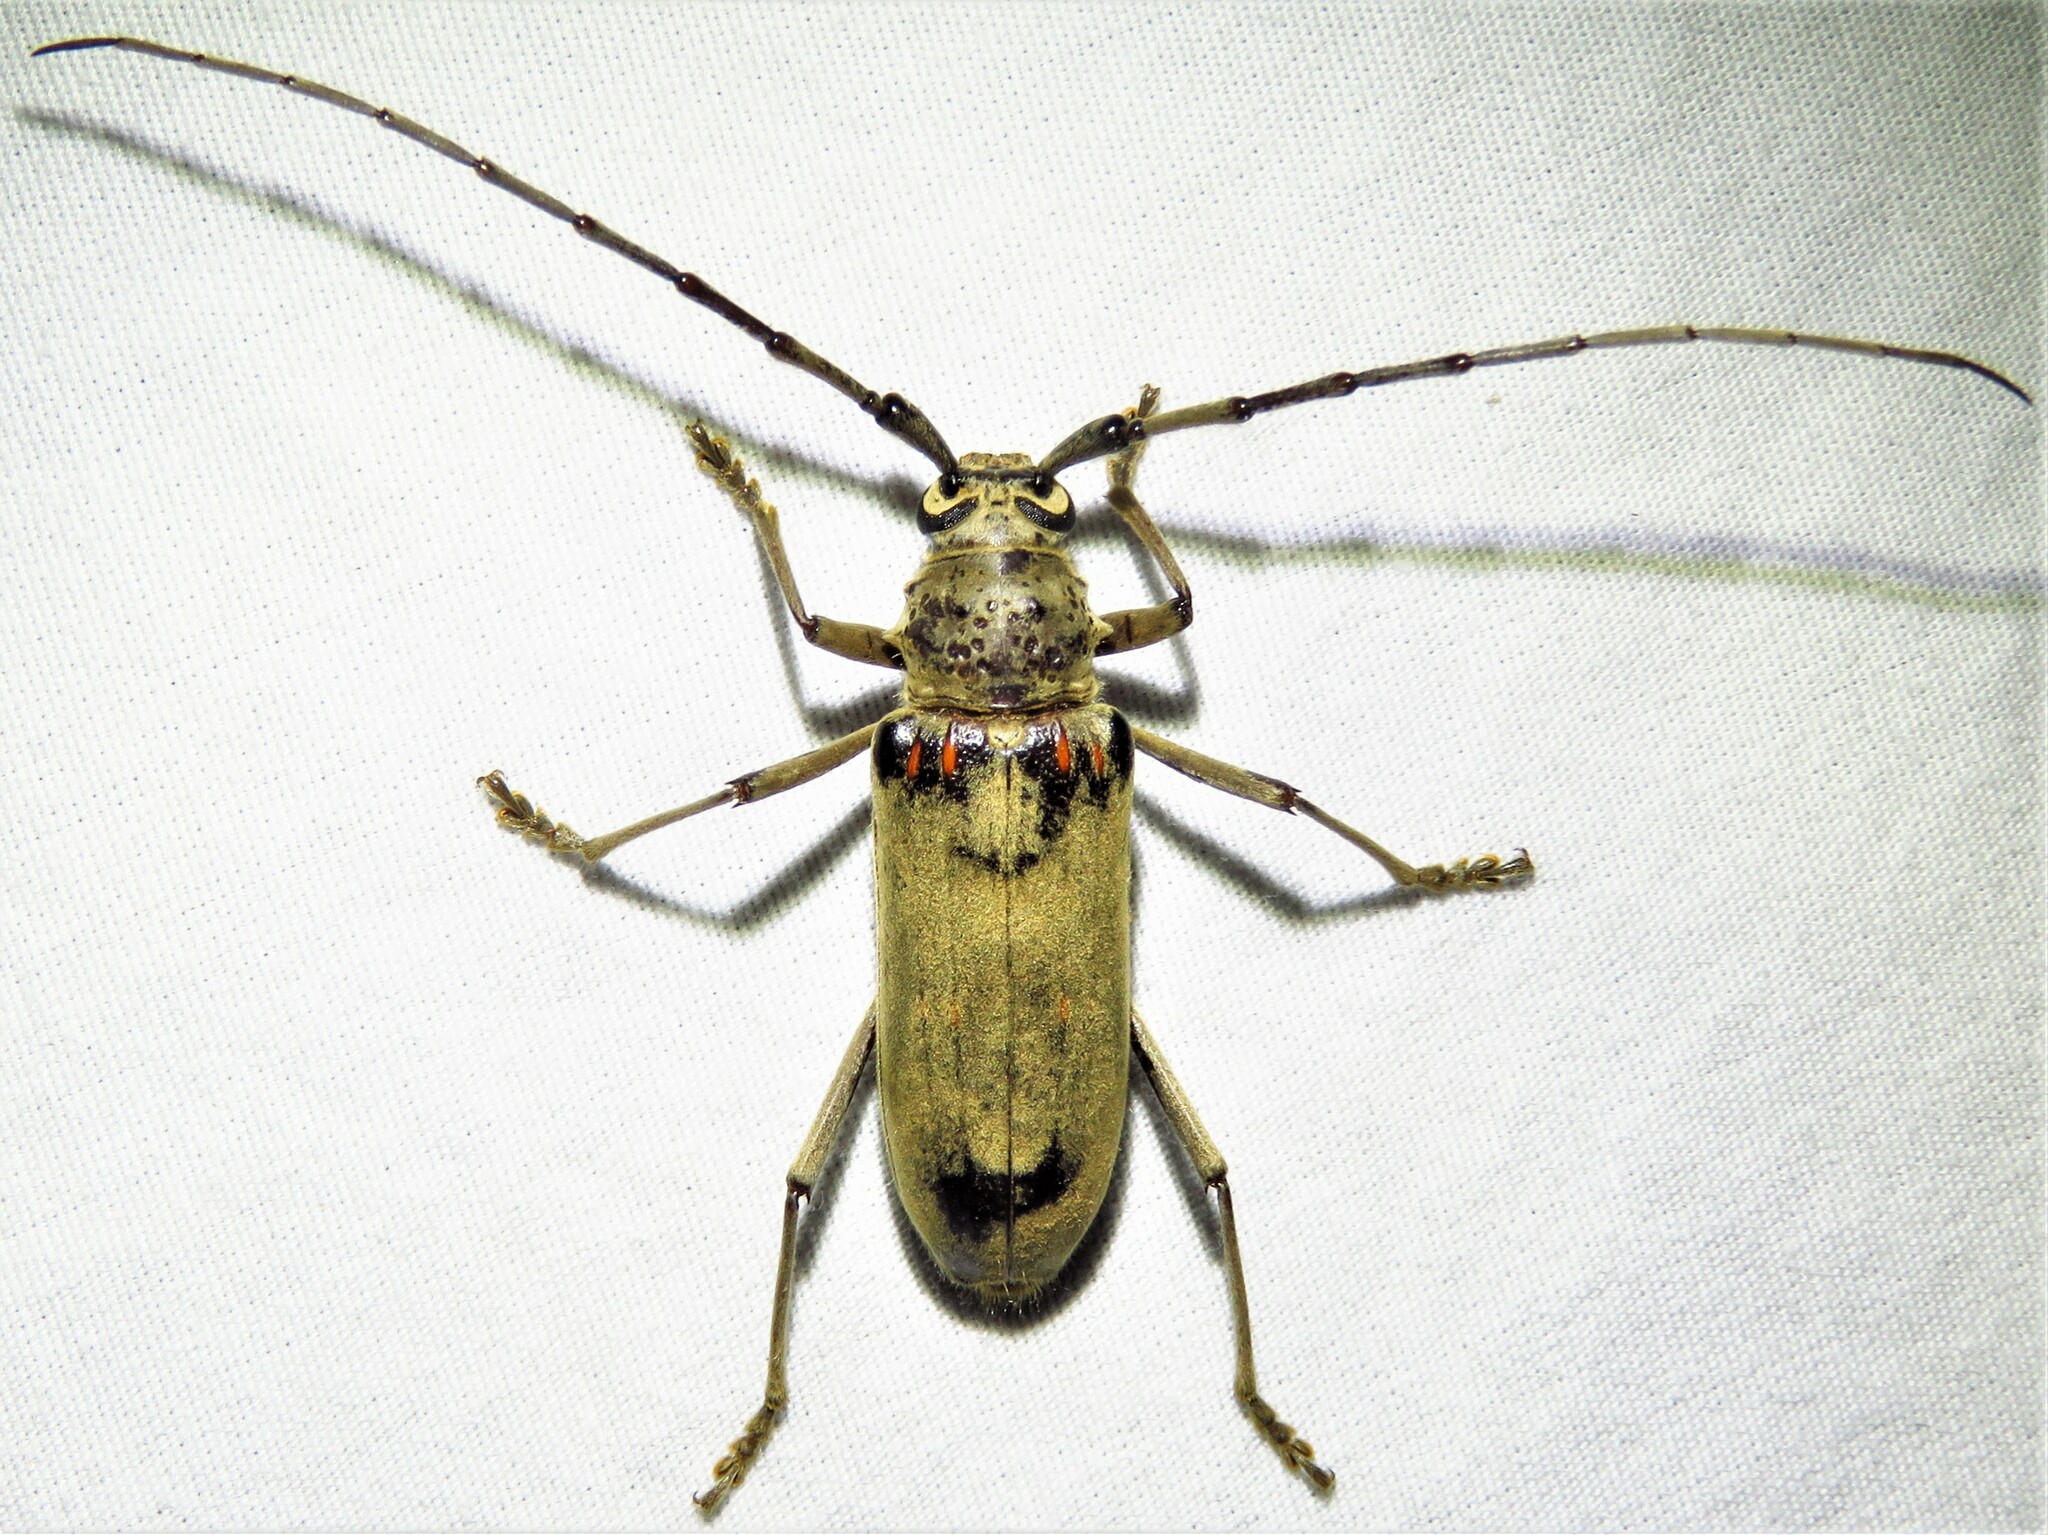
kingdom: Animalia
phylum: Arthropoda
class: Insecta
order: Coleoptera
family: Cerambycidae
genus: Susuacanga
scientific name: Susuacanga stigmatica
